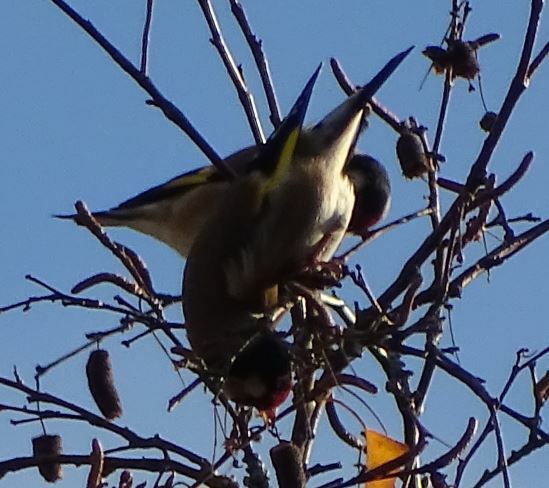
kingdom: Animalia
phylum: Chordata
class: Aves
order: Passeriformes
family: Fringillidae
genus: Carduelis
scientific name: Carduelis carduelis
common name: European goldfinch
